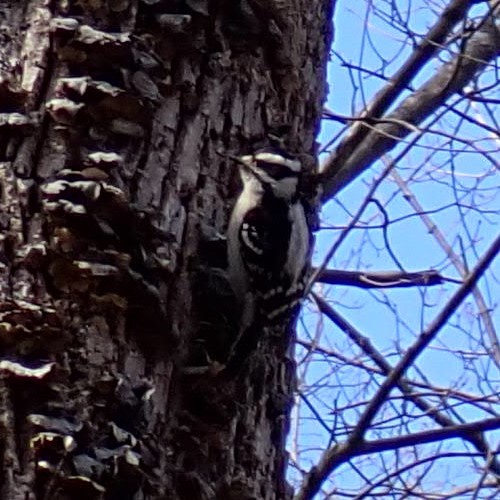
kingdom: Animalia
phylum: Chordata
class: Aves
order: Piciformes
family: Picidae
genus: Dryobates
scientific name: Dryobates pubescens
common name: Downy woodpecker
